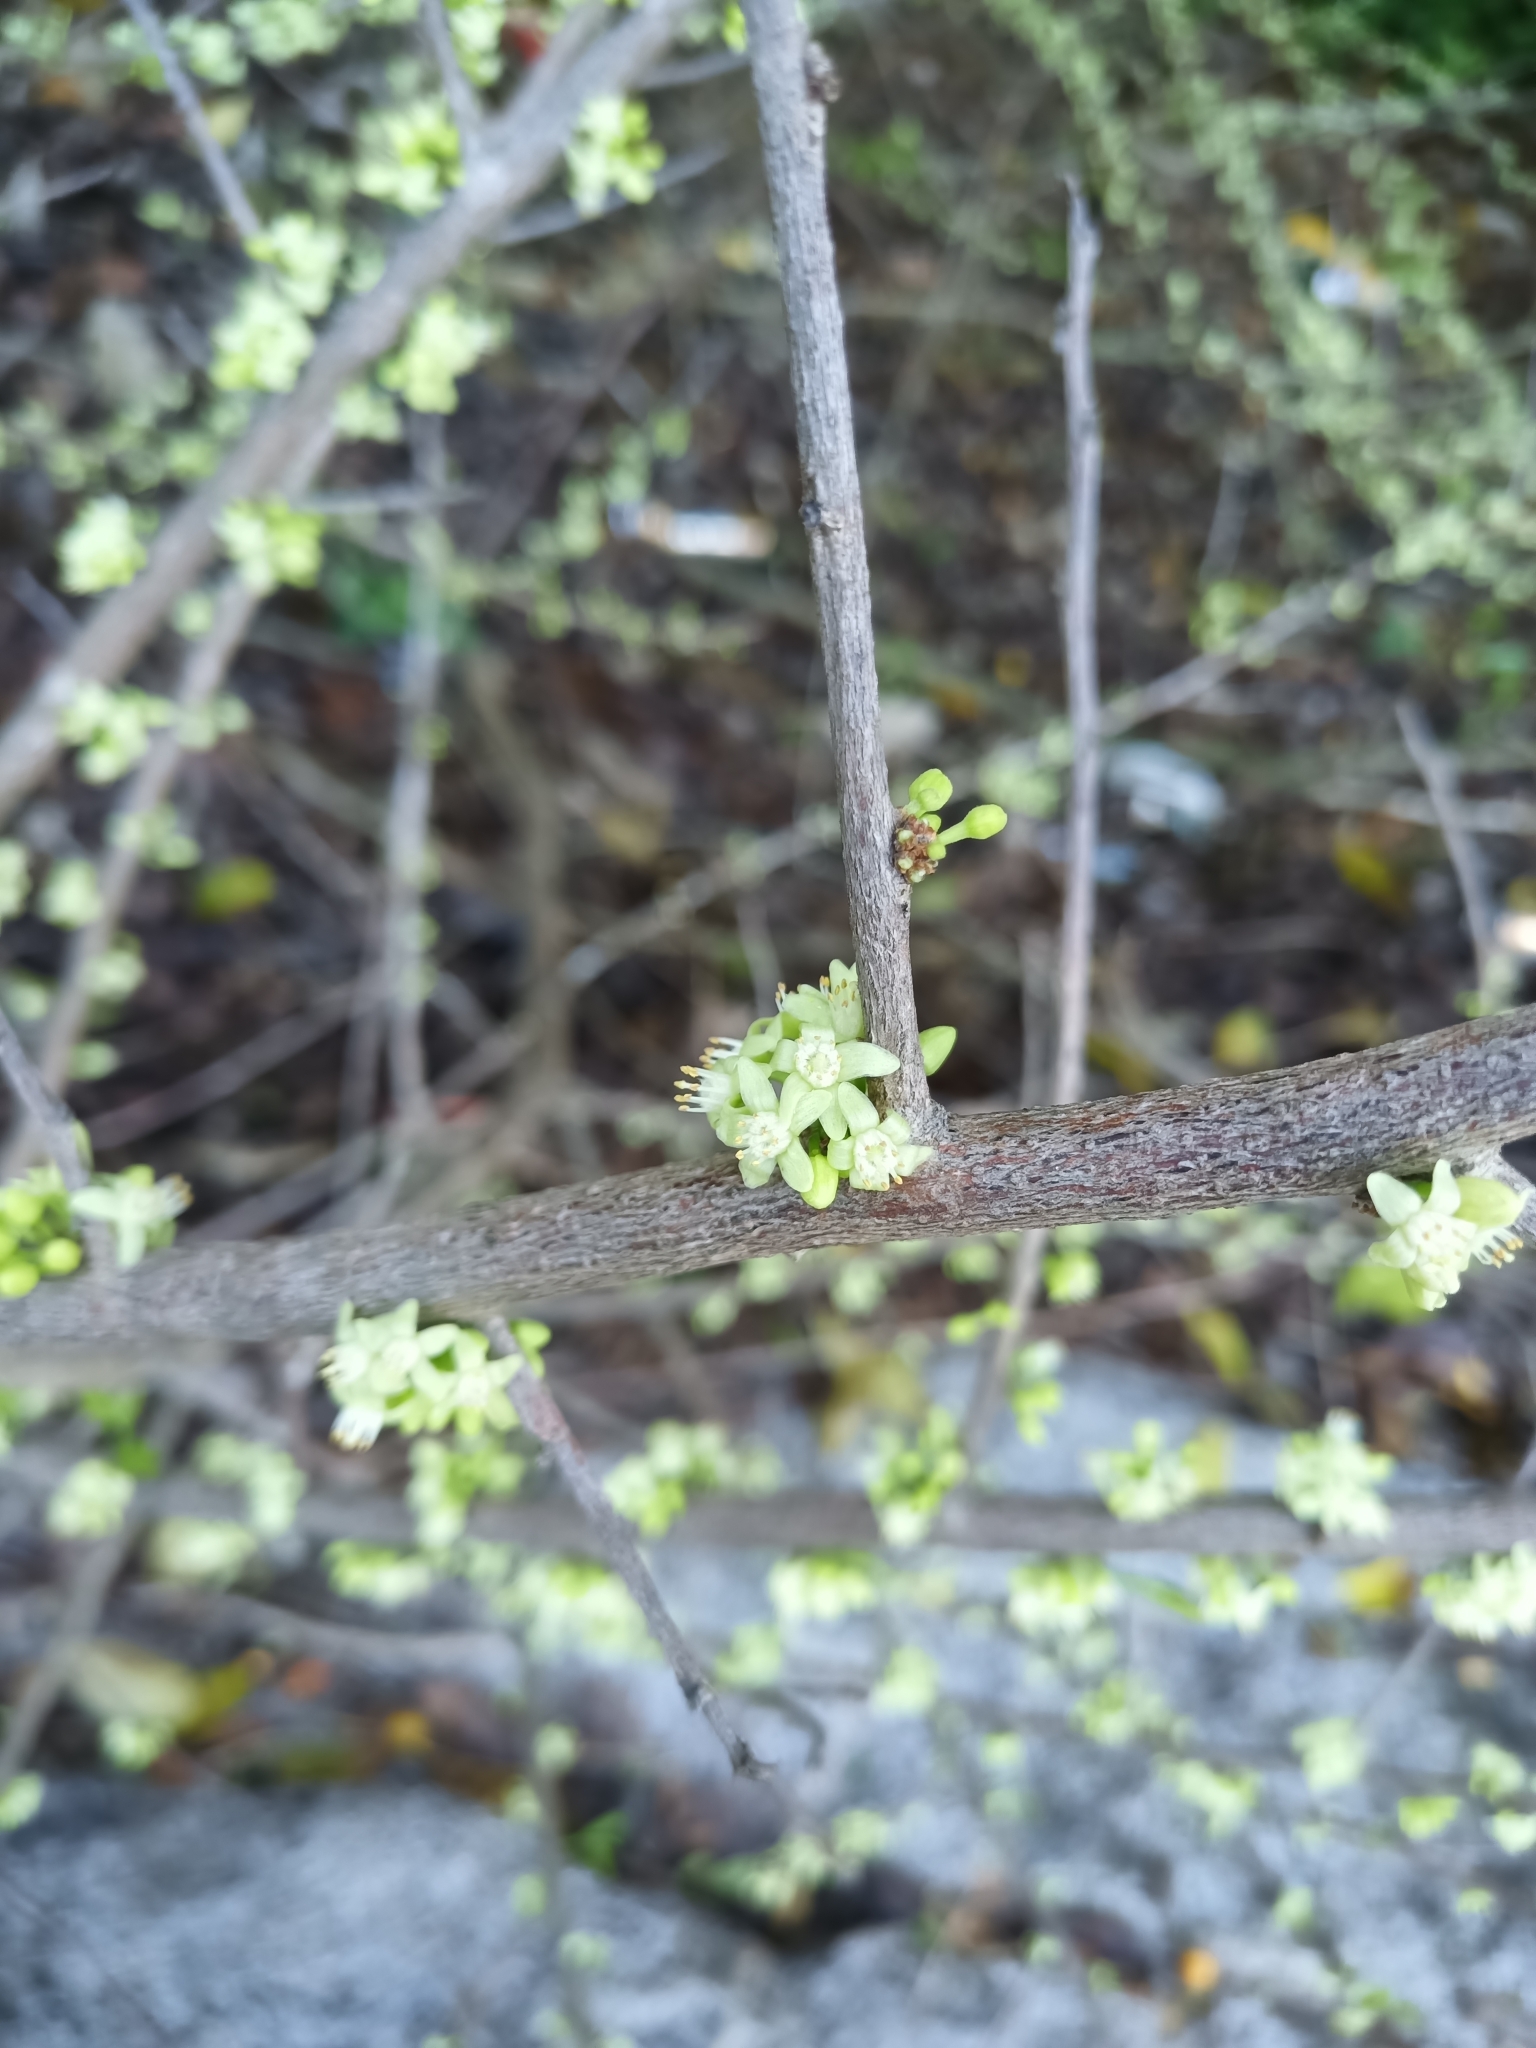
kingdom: Plantae
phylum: Tracheophyta
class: Magnoliopsida
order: Malpighiales
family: Salicaceae
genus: Casearia
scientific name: Casearia guianensis
